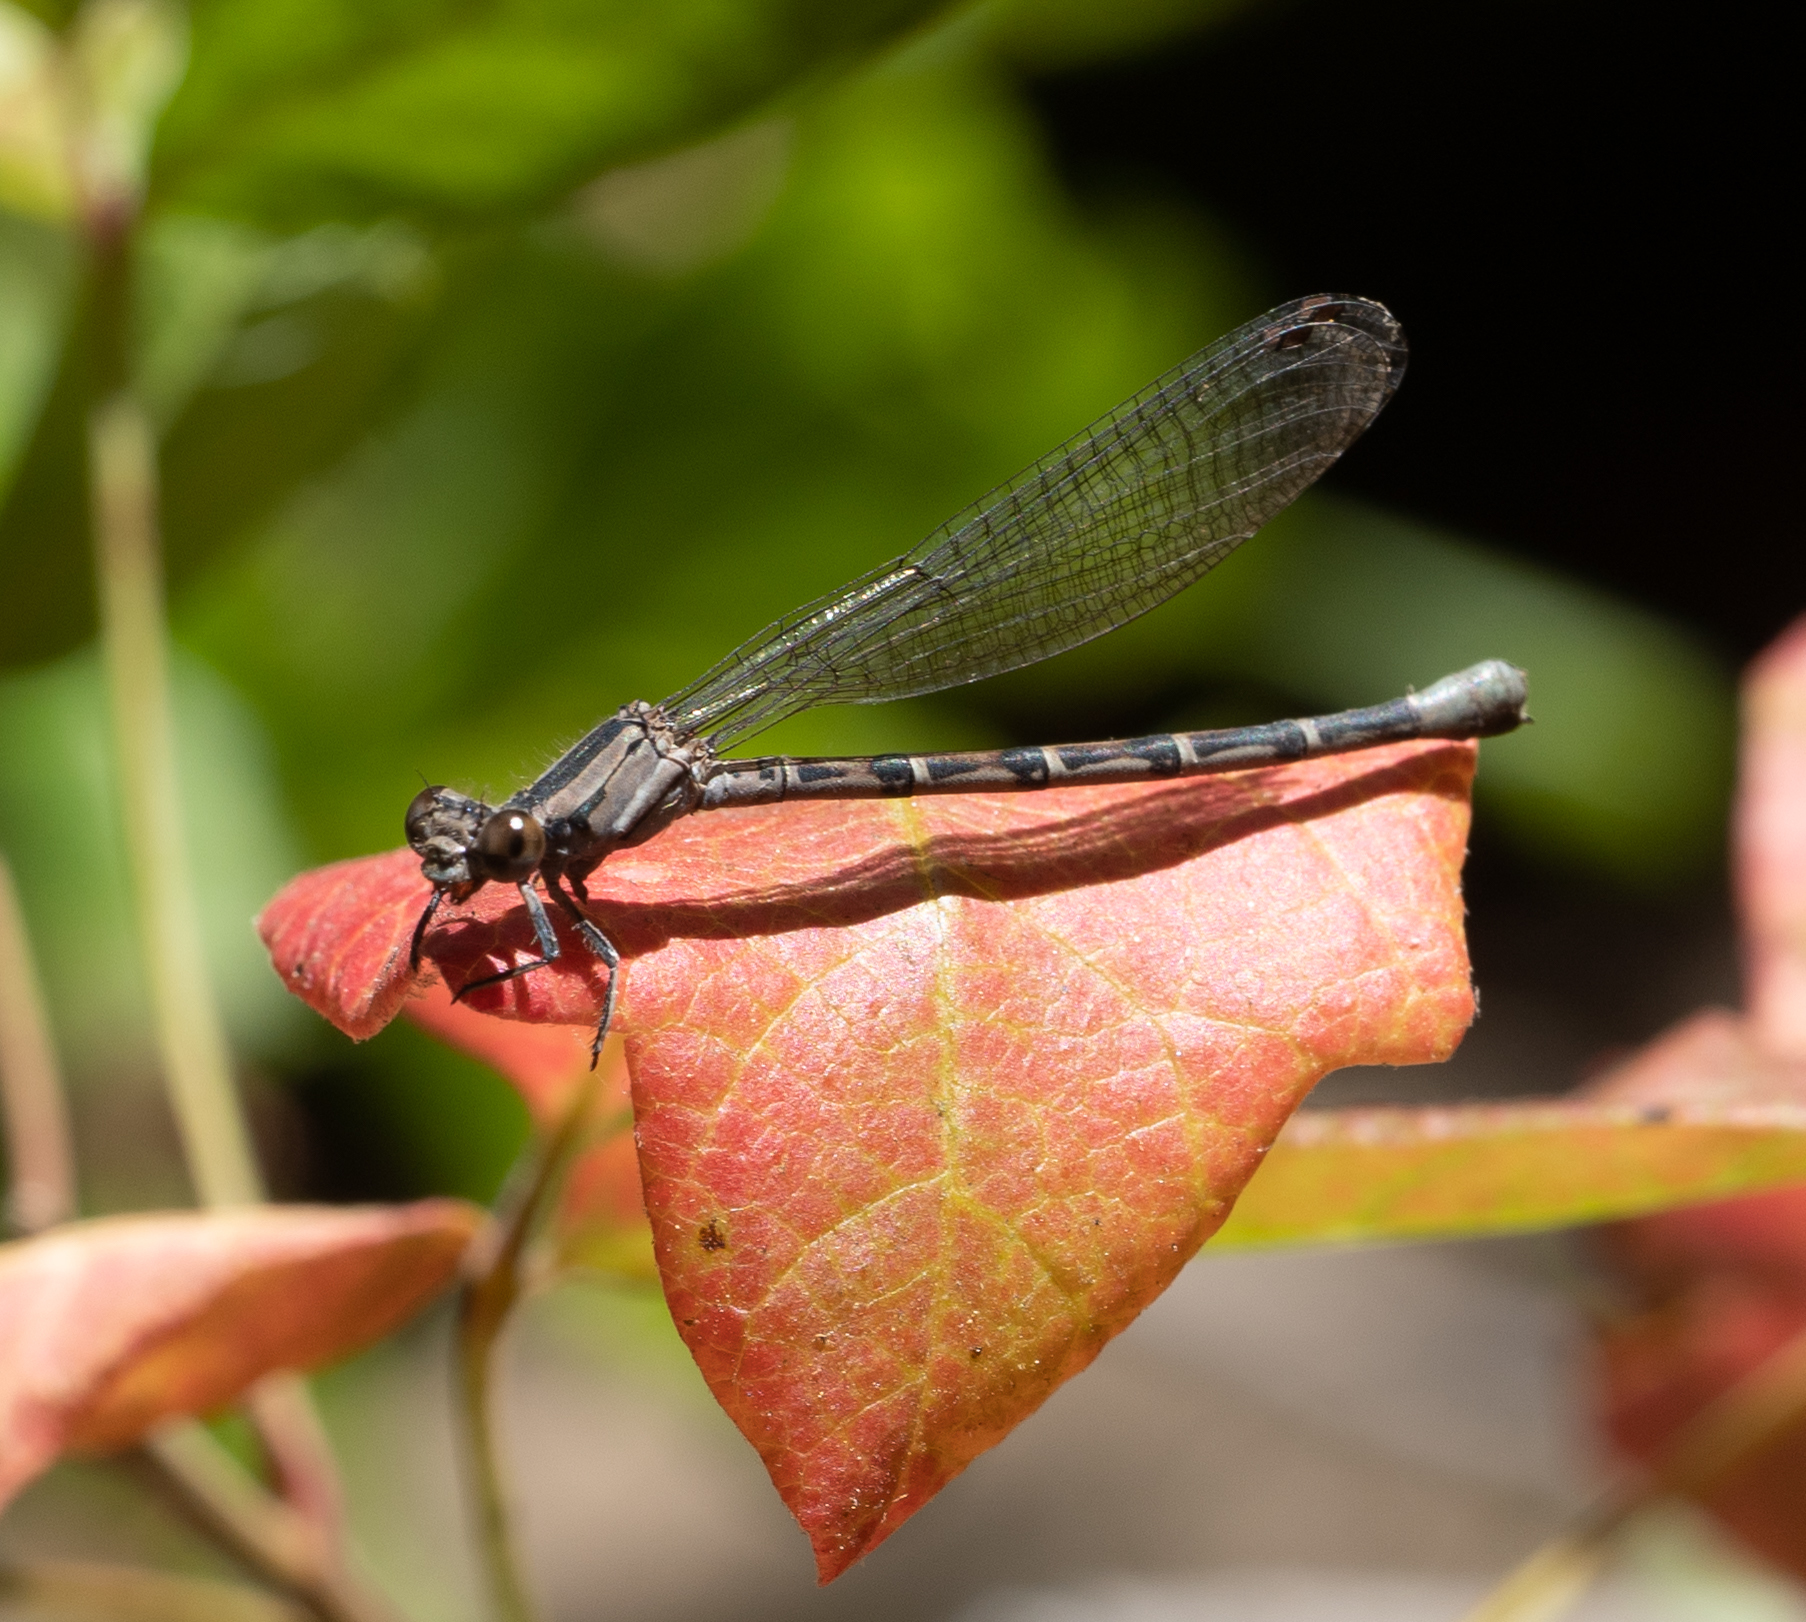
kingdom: Animalia
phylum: Arthropoda
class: Insecta
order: Odonata
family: Coenagrionidae
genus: Argia
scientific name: Argia vivida
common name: Vivid dancer
